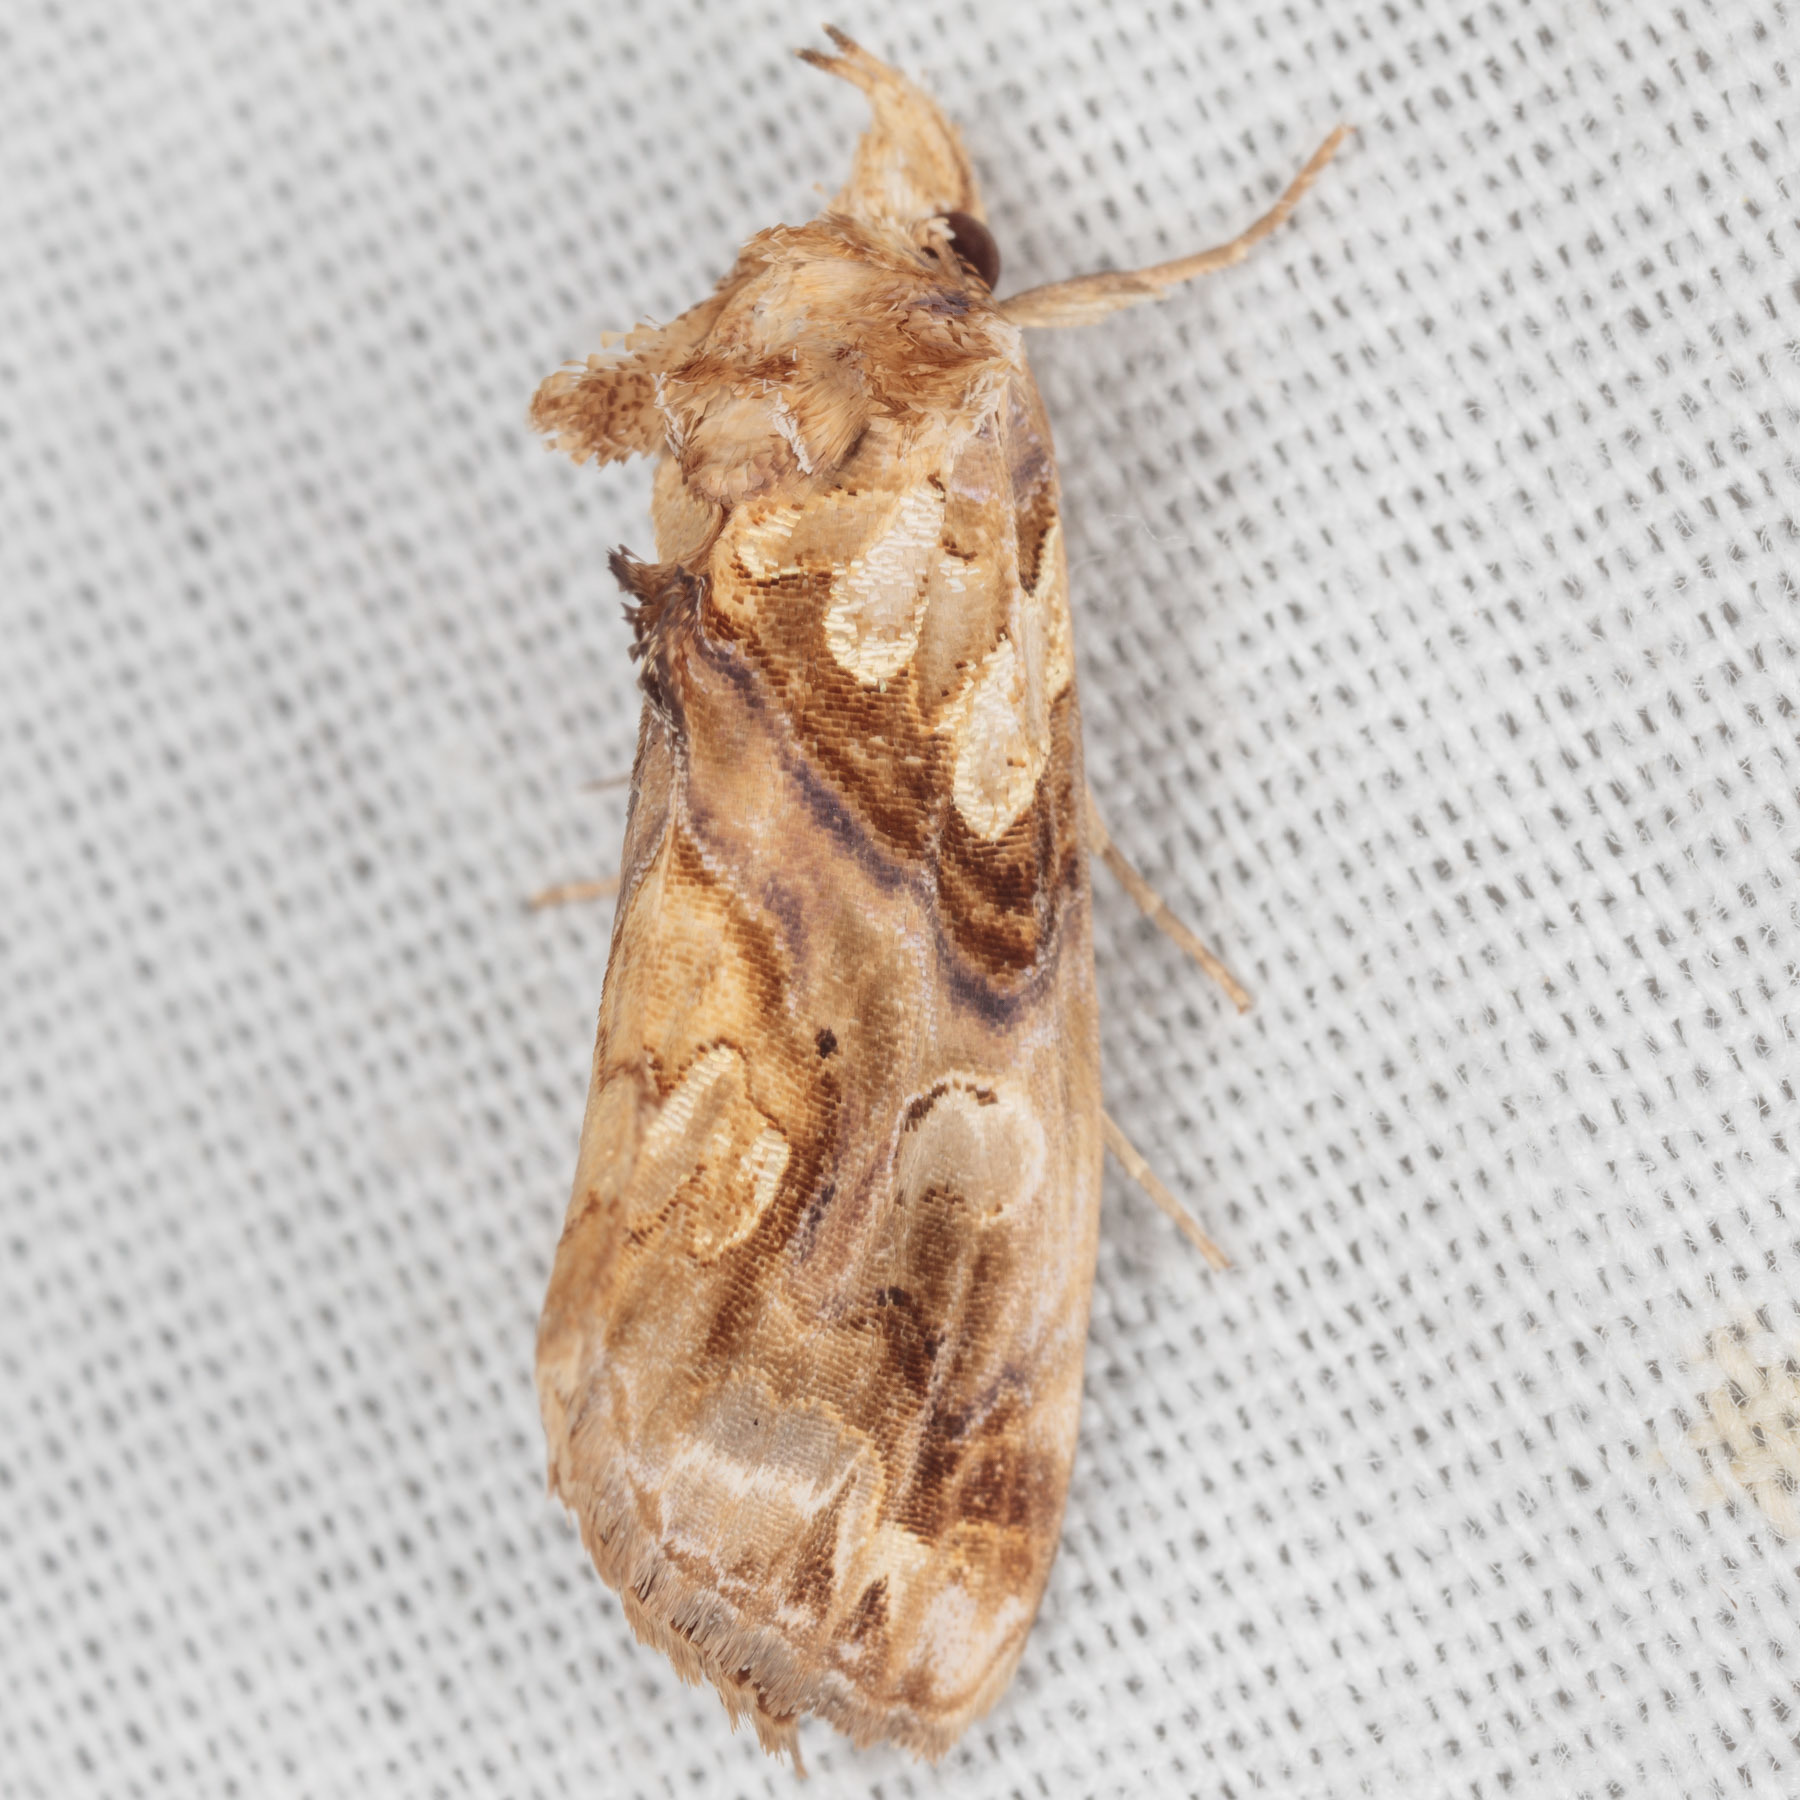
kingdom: Animalia
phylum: Arthropoda
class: Insecta
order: Lepidoptera
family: Erebidae
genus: Plusiodonta
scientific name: Plusiodonta compressipalpis
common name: Moonseed moth
